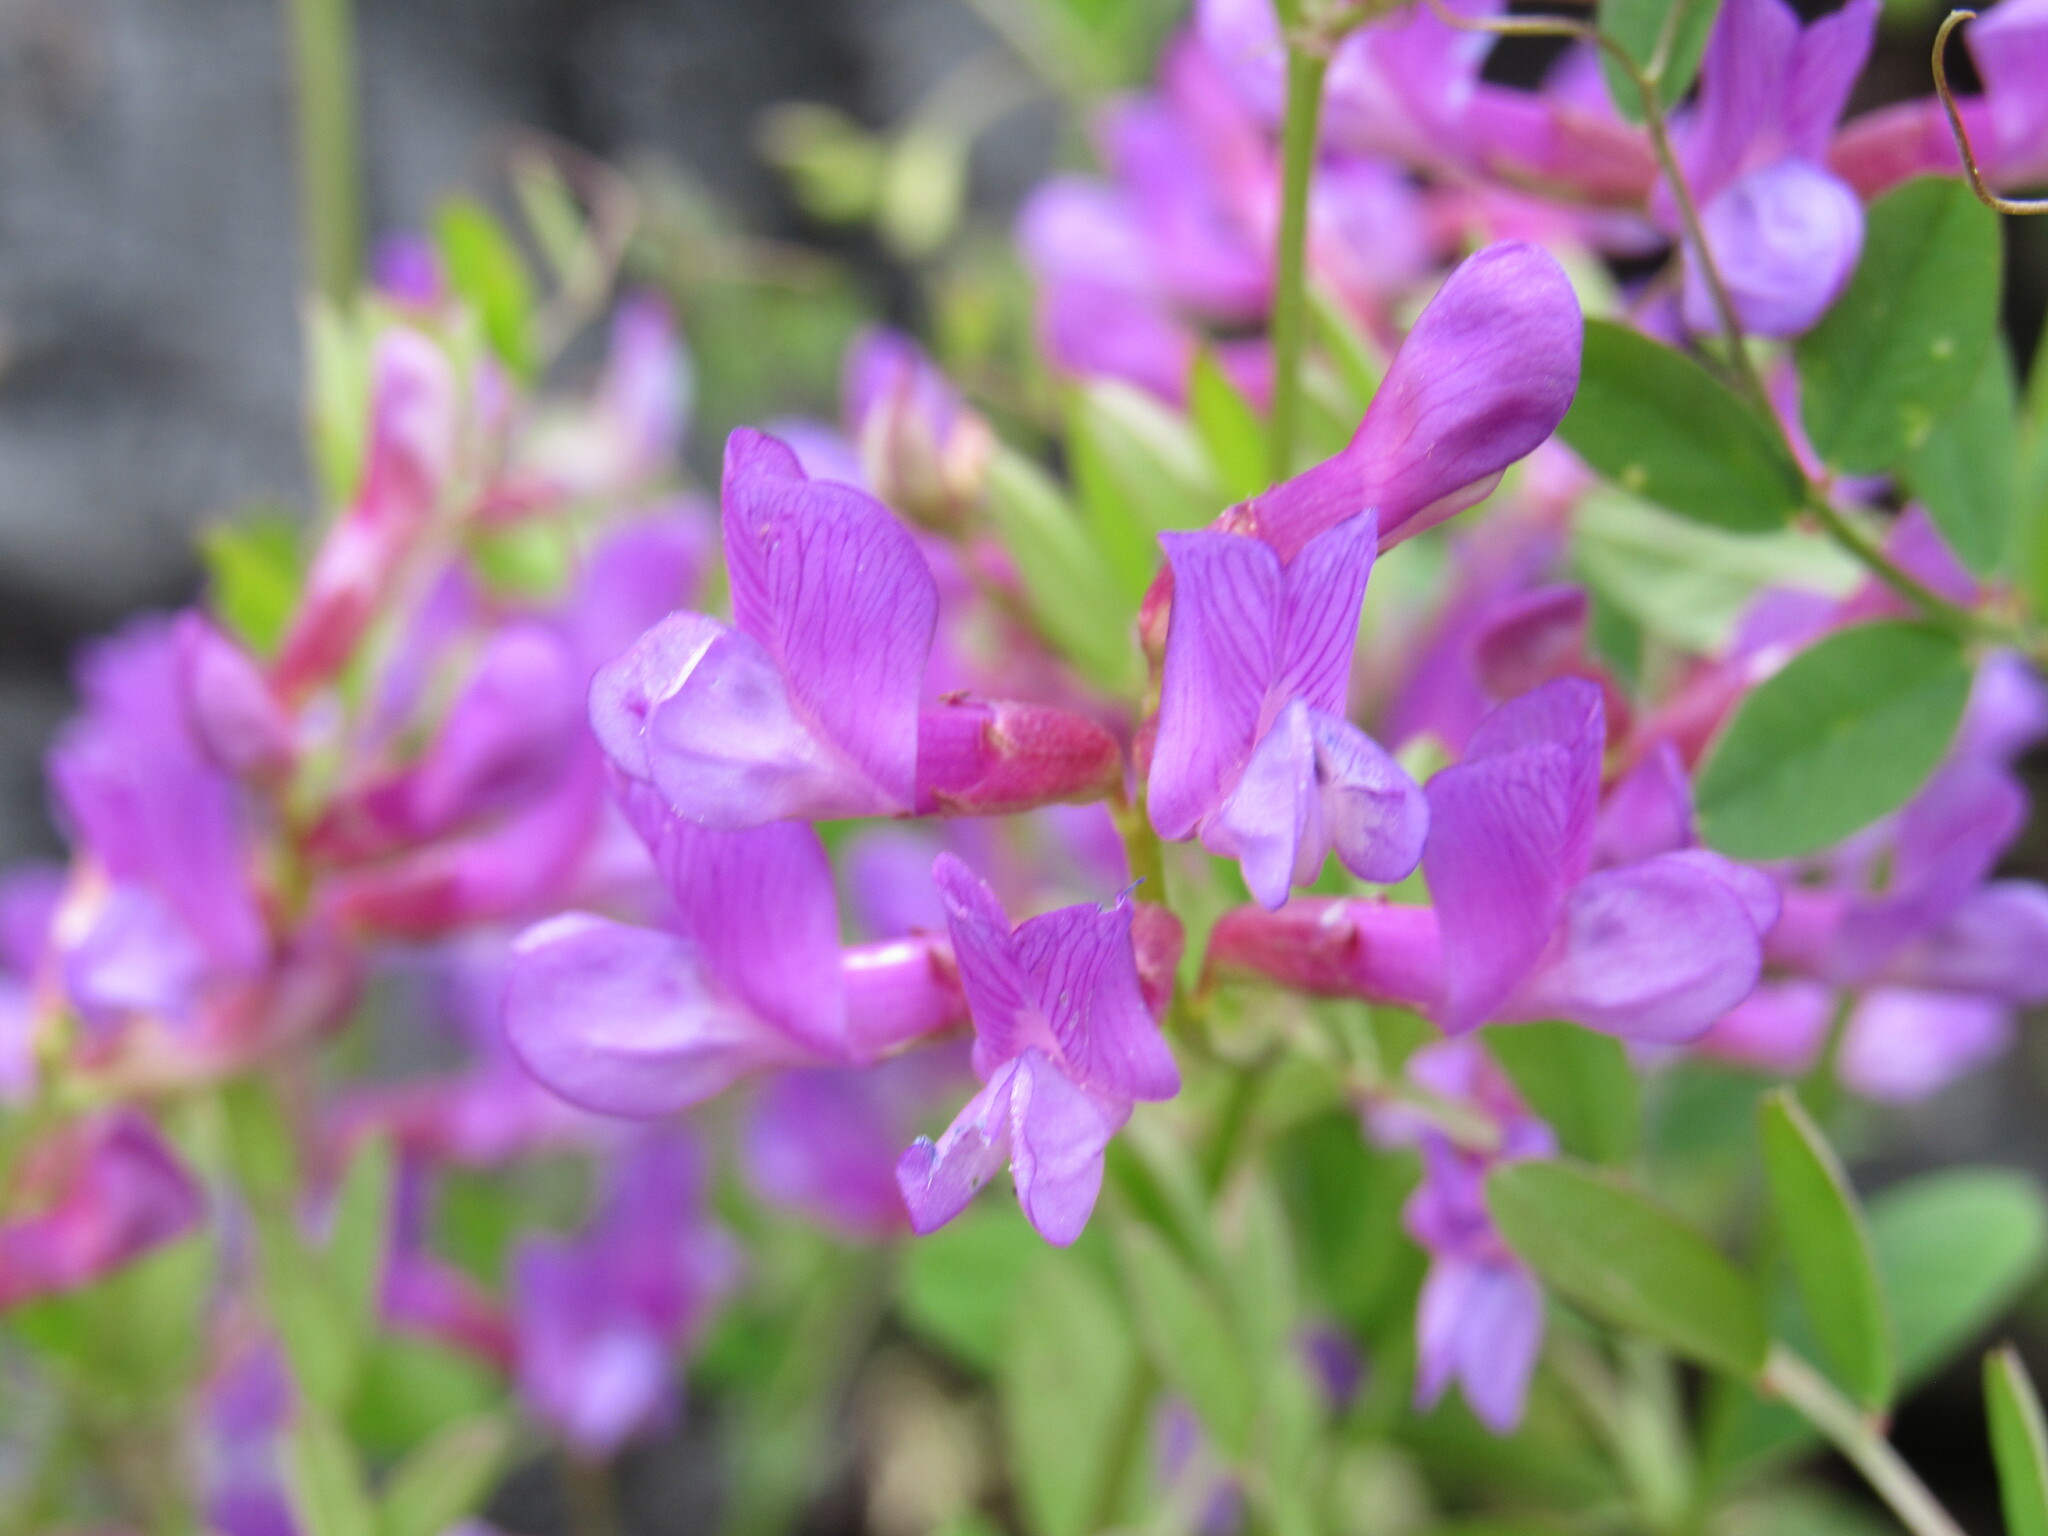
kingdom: Plantae
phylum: Tracheophyta
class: Magnoliopsida
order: Fabales
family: Fabaceae
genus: Vicia
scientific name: Vicia americana
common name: American vetch
